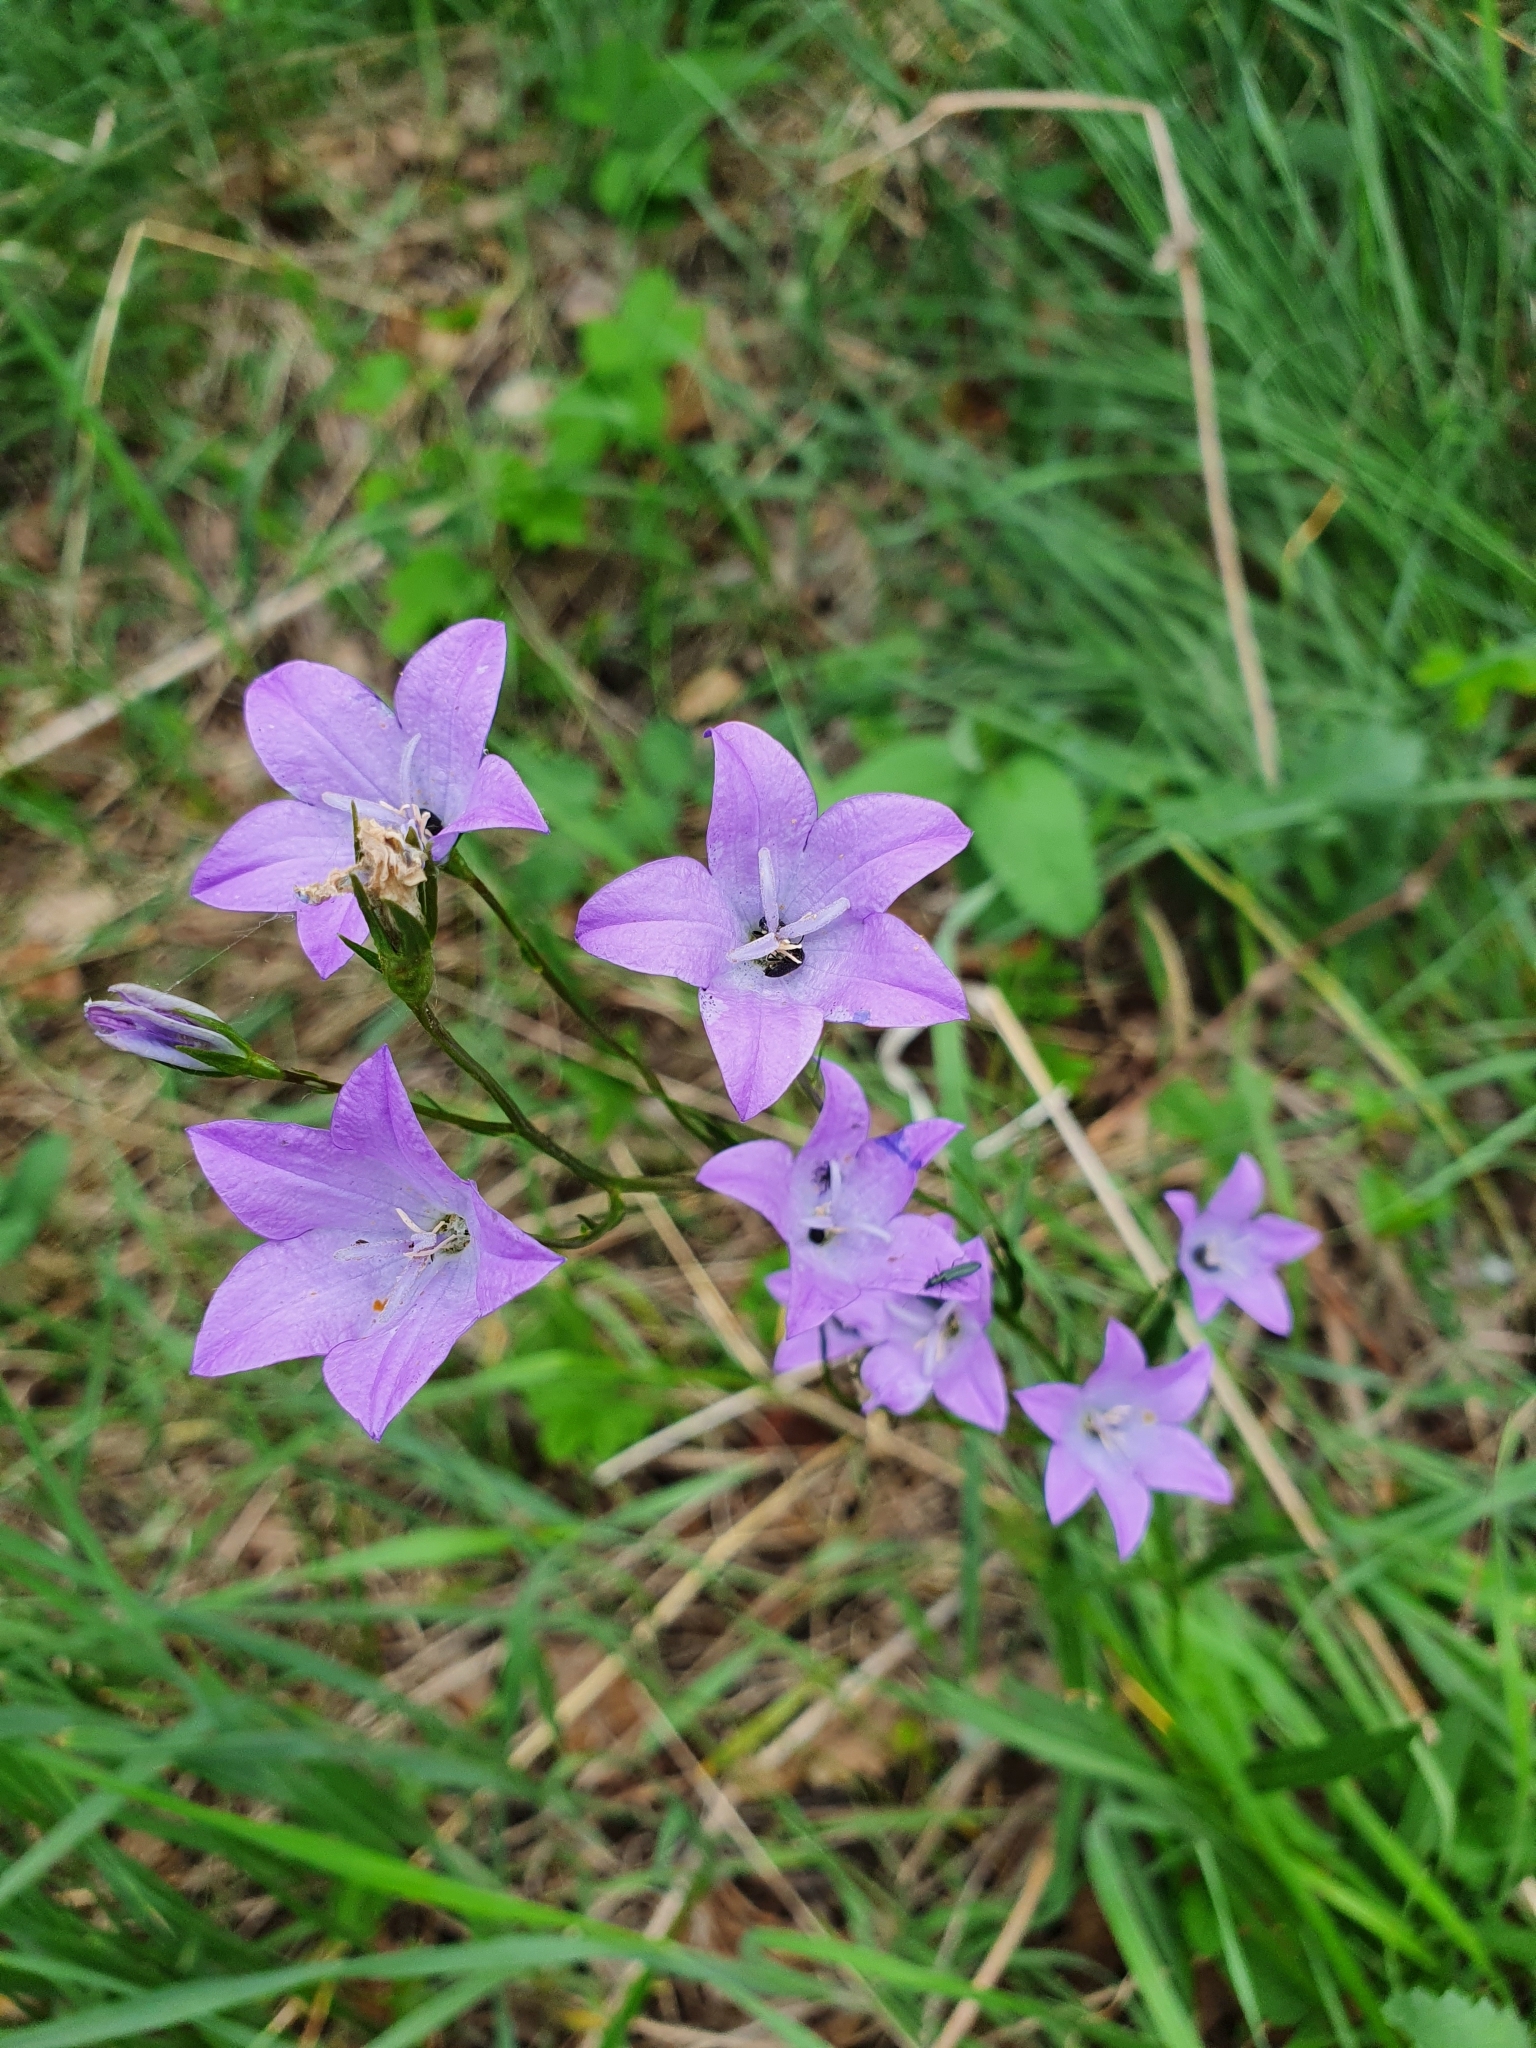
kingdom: Plantae
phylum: Tracheophyta
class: Magnoliopsida
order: Asterales
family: Campanulaceae
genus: Campanula
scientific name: Campanula stevenii
